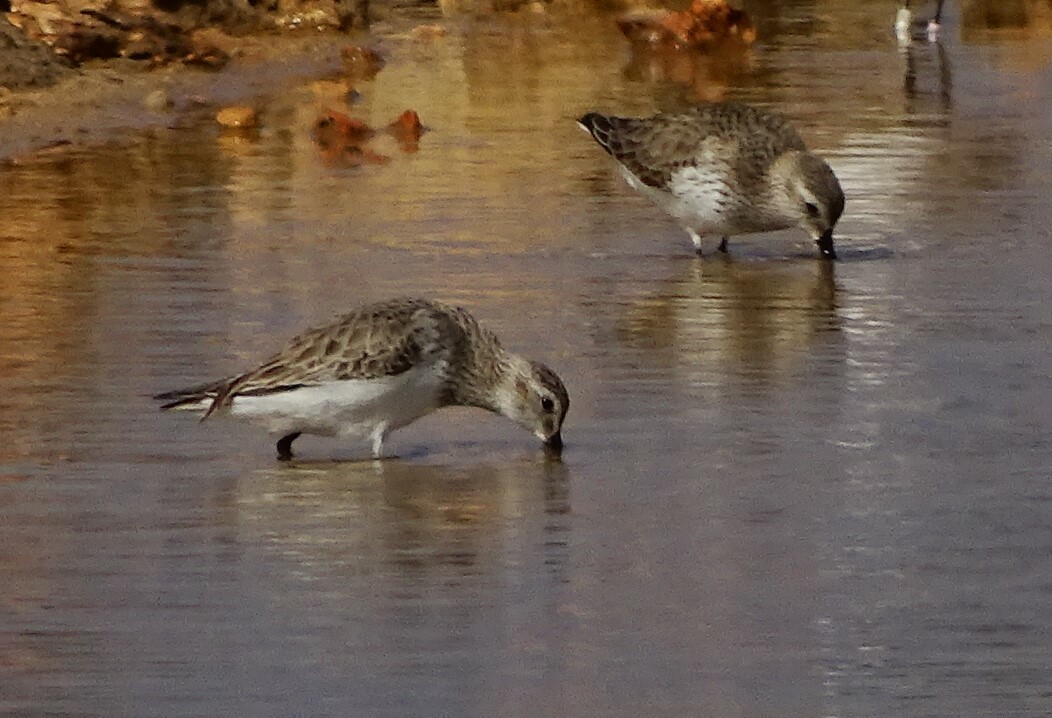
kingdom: Animalia
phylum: Chordata
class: Aves
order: Charadriiformes
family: Scolopacidae
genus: Calidris
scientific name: Calidris alpina
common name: Dunlin
